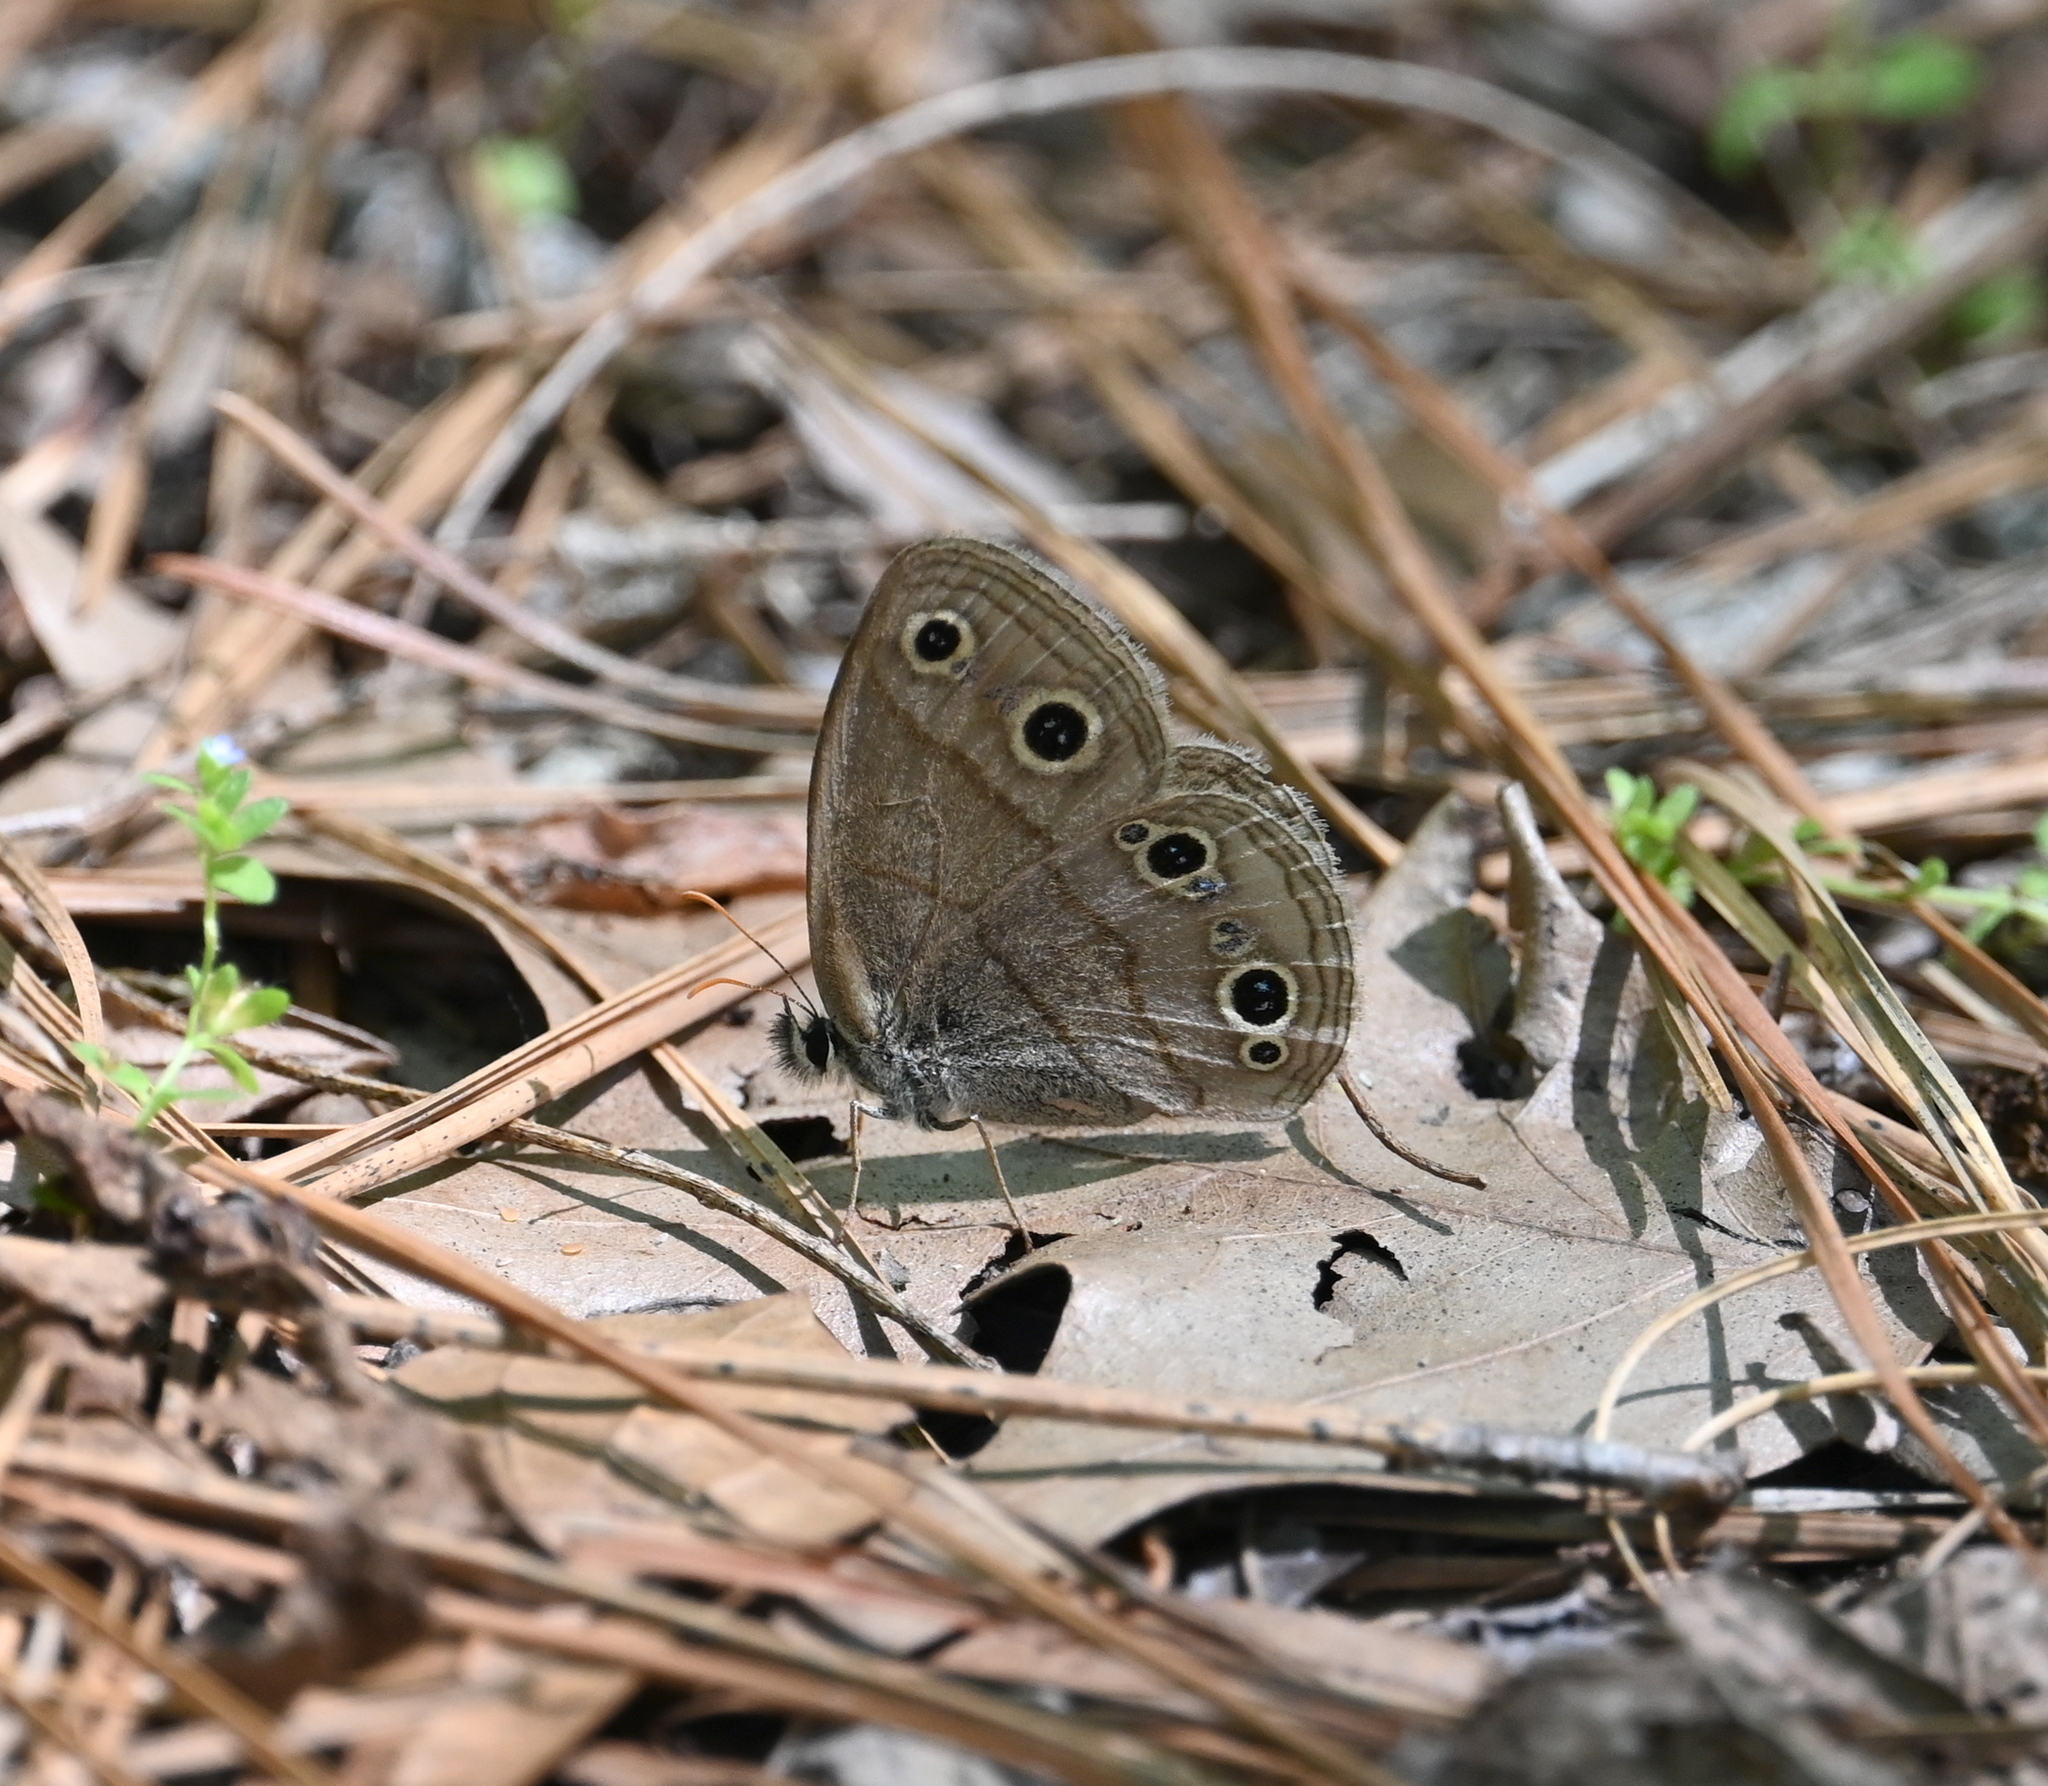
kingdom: Animalia
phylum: Arthropoda
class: Insecta
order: Lepidoptera
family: Nymphalidae
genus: Euptychia
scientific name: Euptychia cymela
